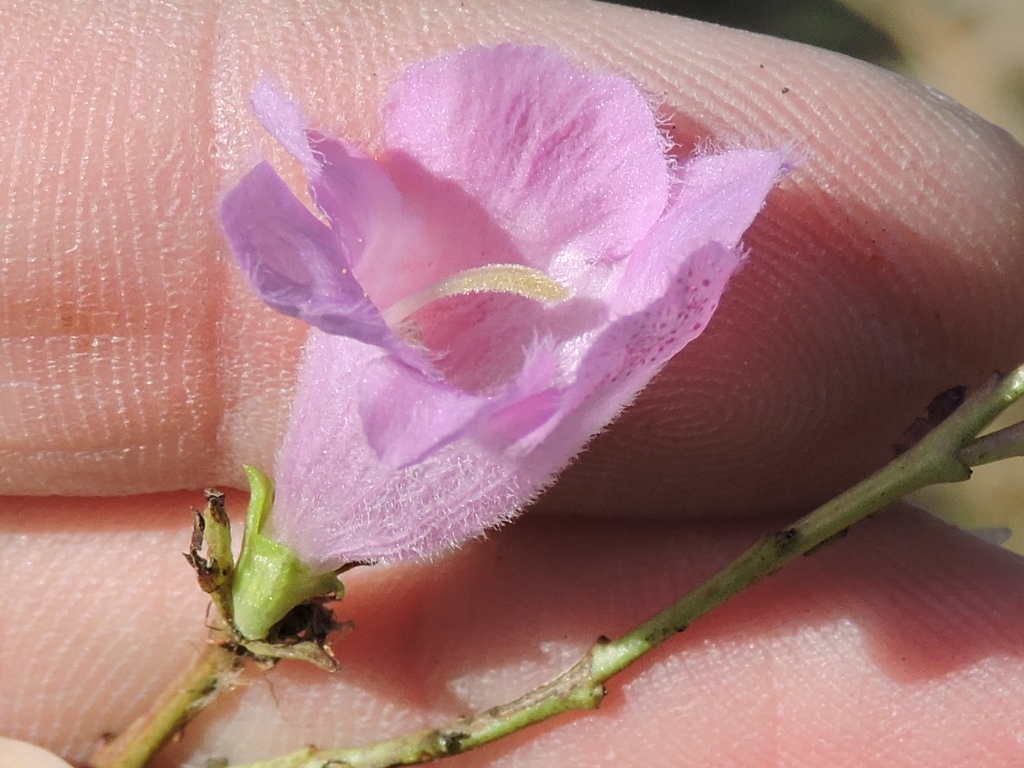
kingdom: Plantae
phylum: Tracheophyta
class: Magnoliopsida
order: Lamiales
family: Orobanchaceae
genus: Agalinis
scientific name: Agalinis heterophylla
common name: Prairie agalinis
